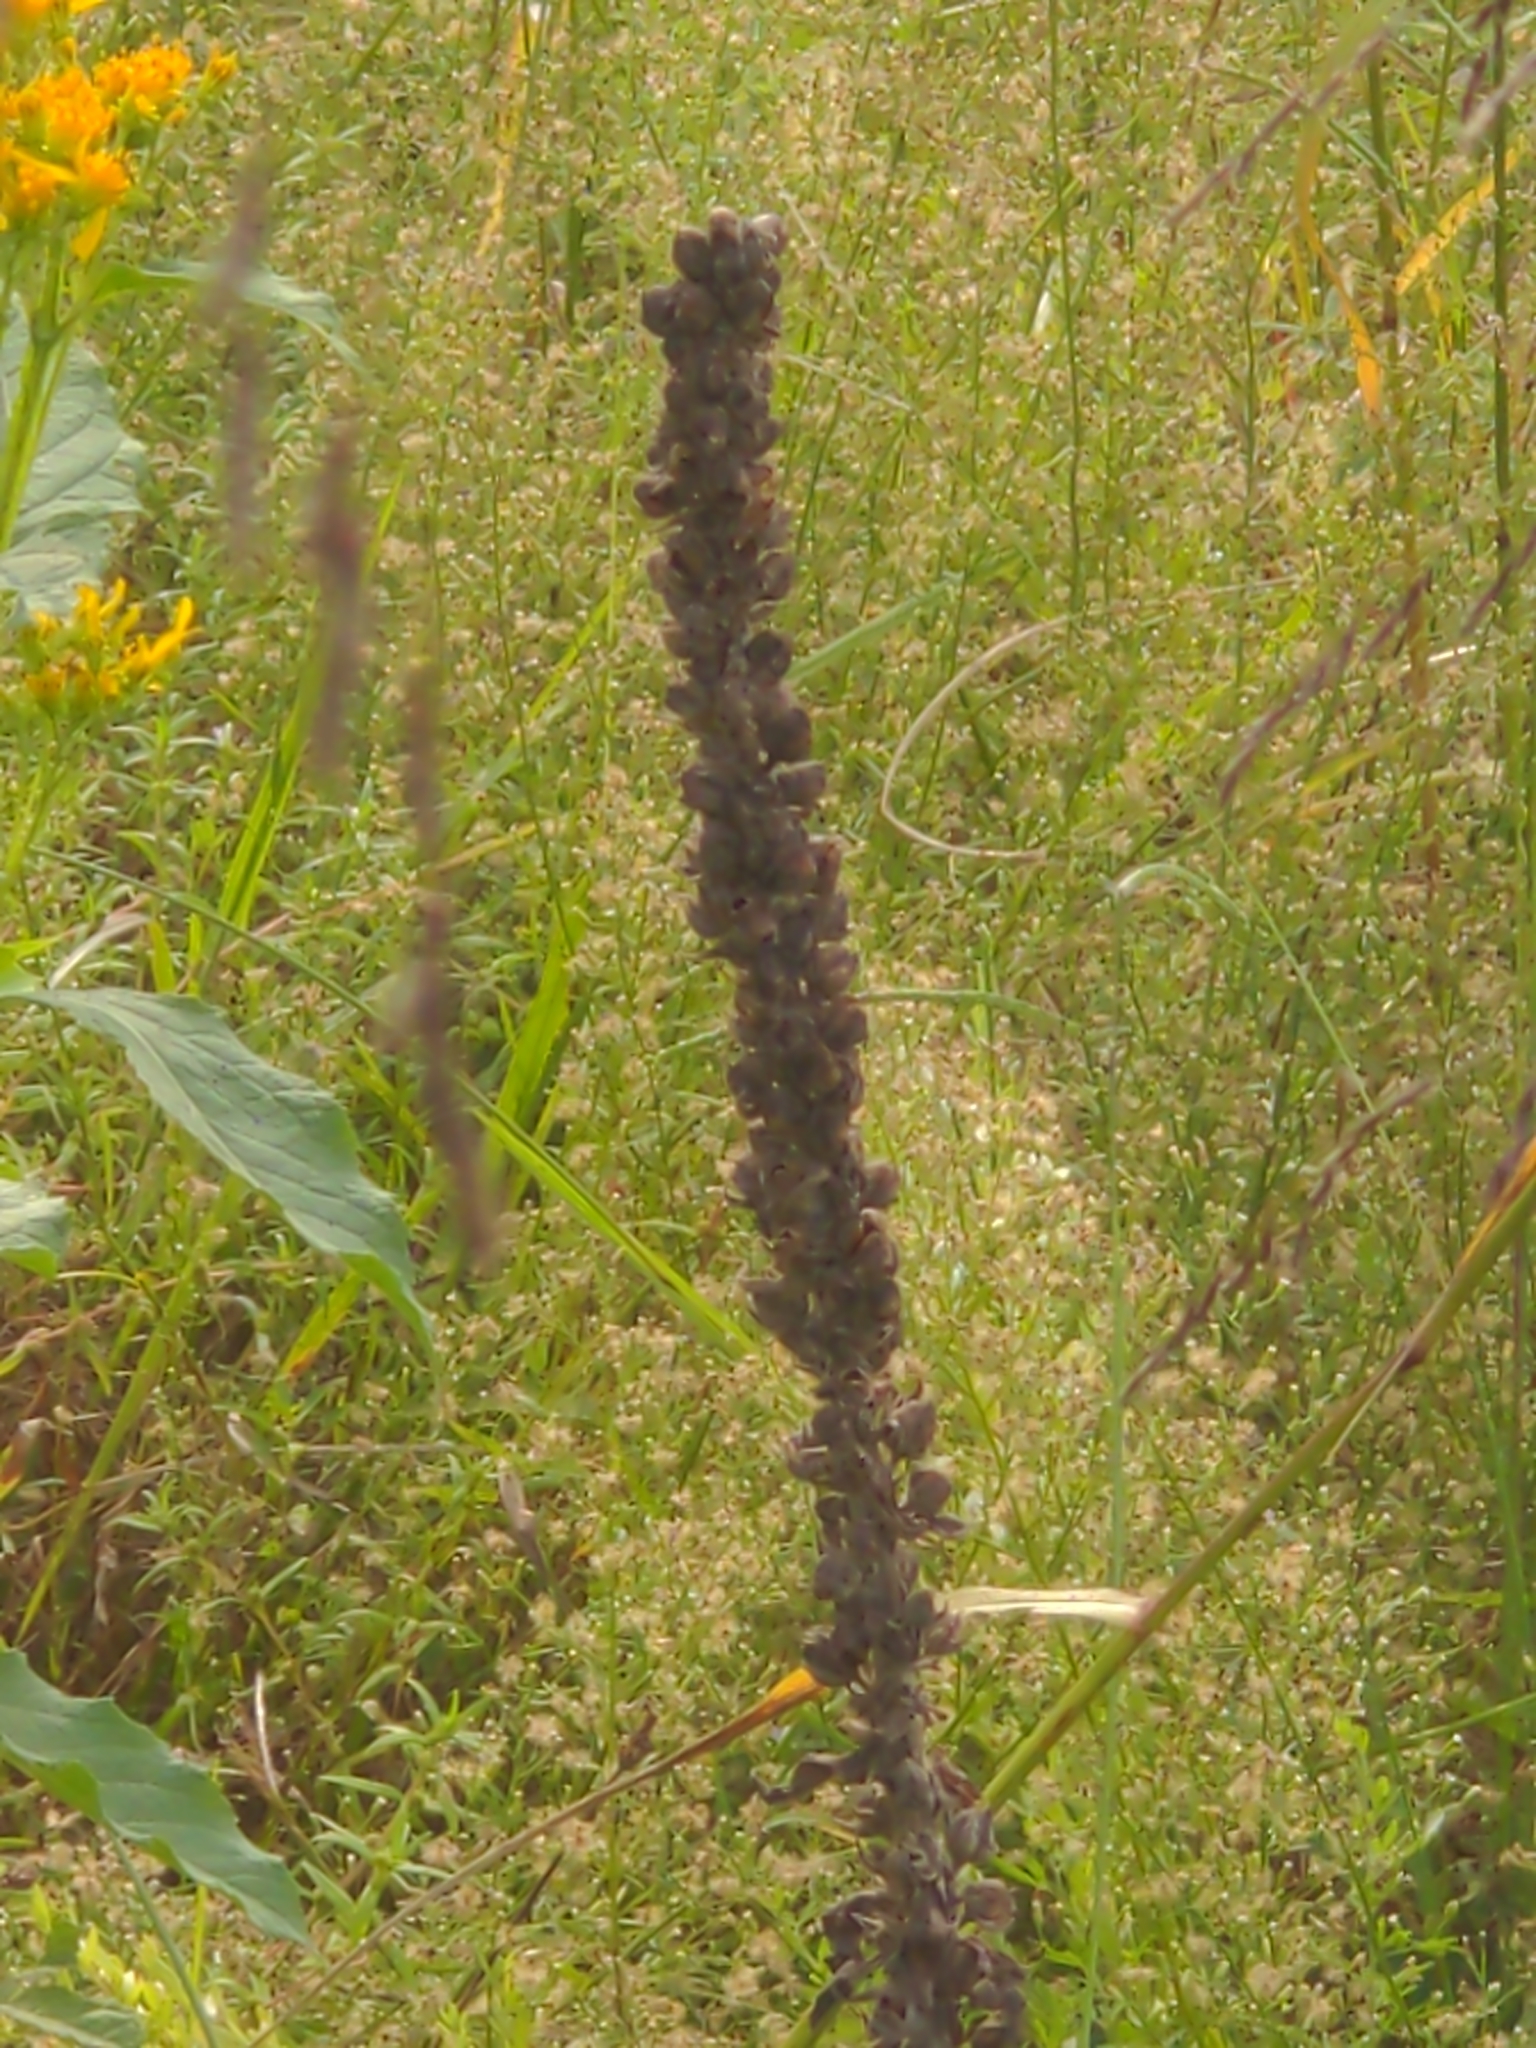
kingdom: Plantae
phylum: Tracheophyta
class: Magnoliopsida
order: Lamiales
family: Scrophulariaceae
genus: Verbascum
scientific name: Verbascum thapsus
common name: Common mullein
